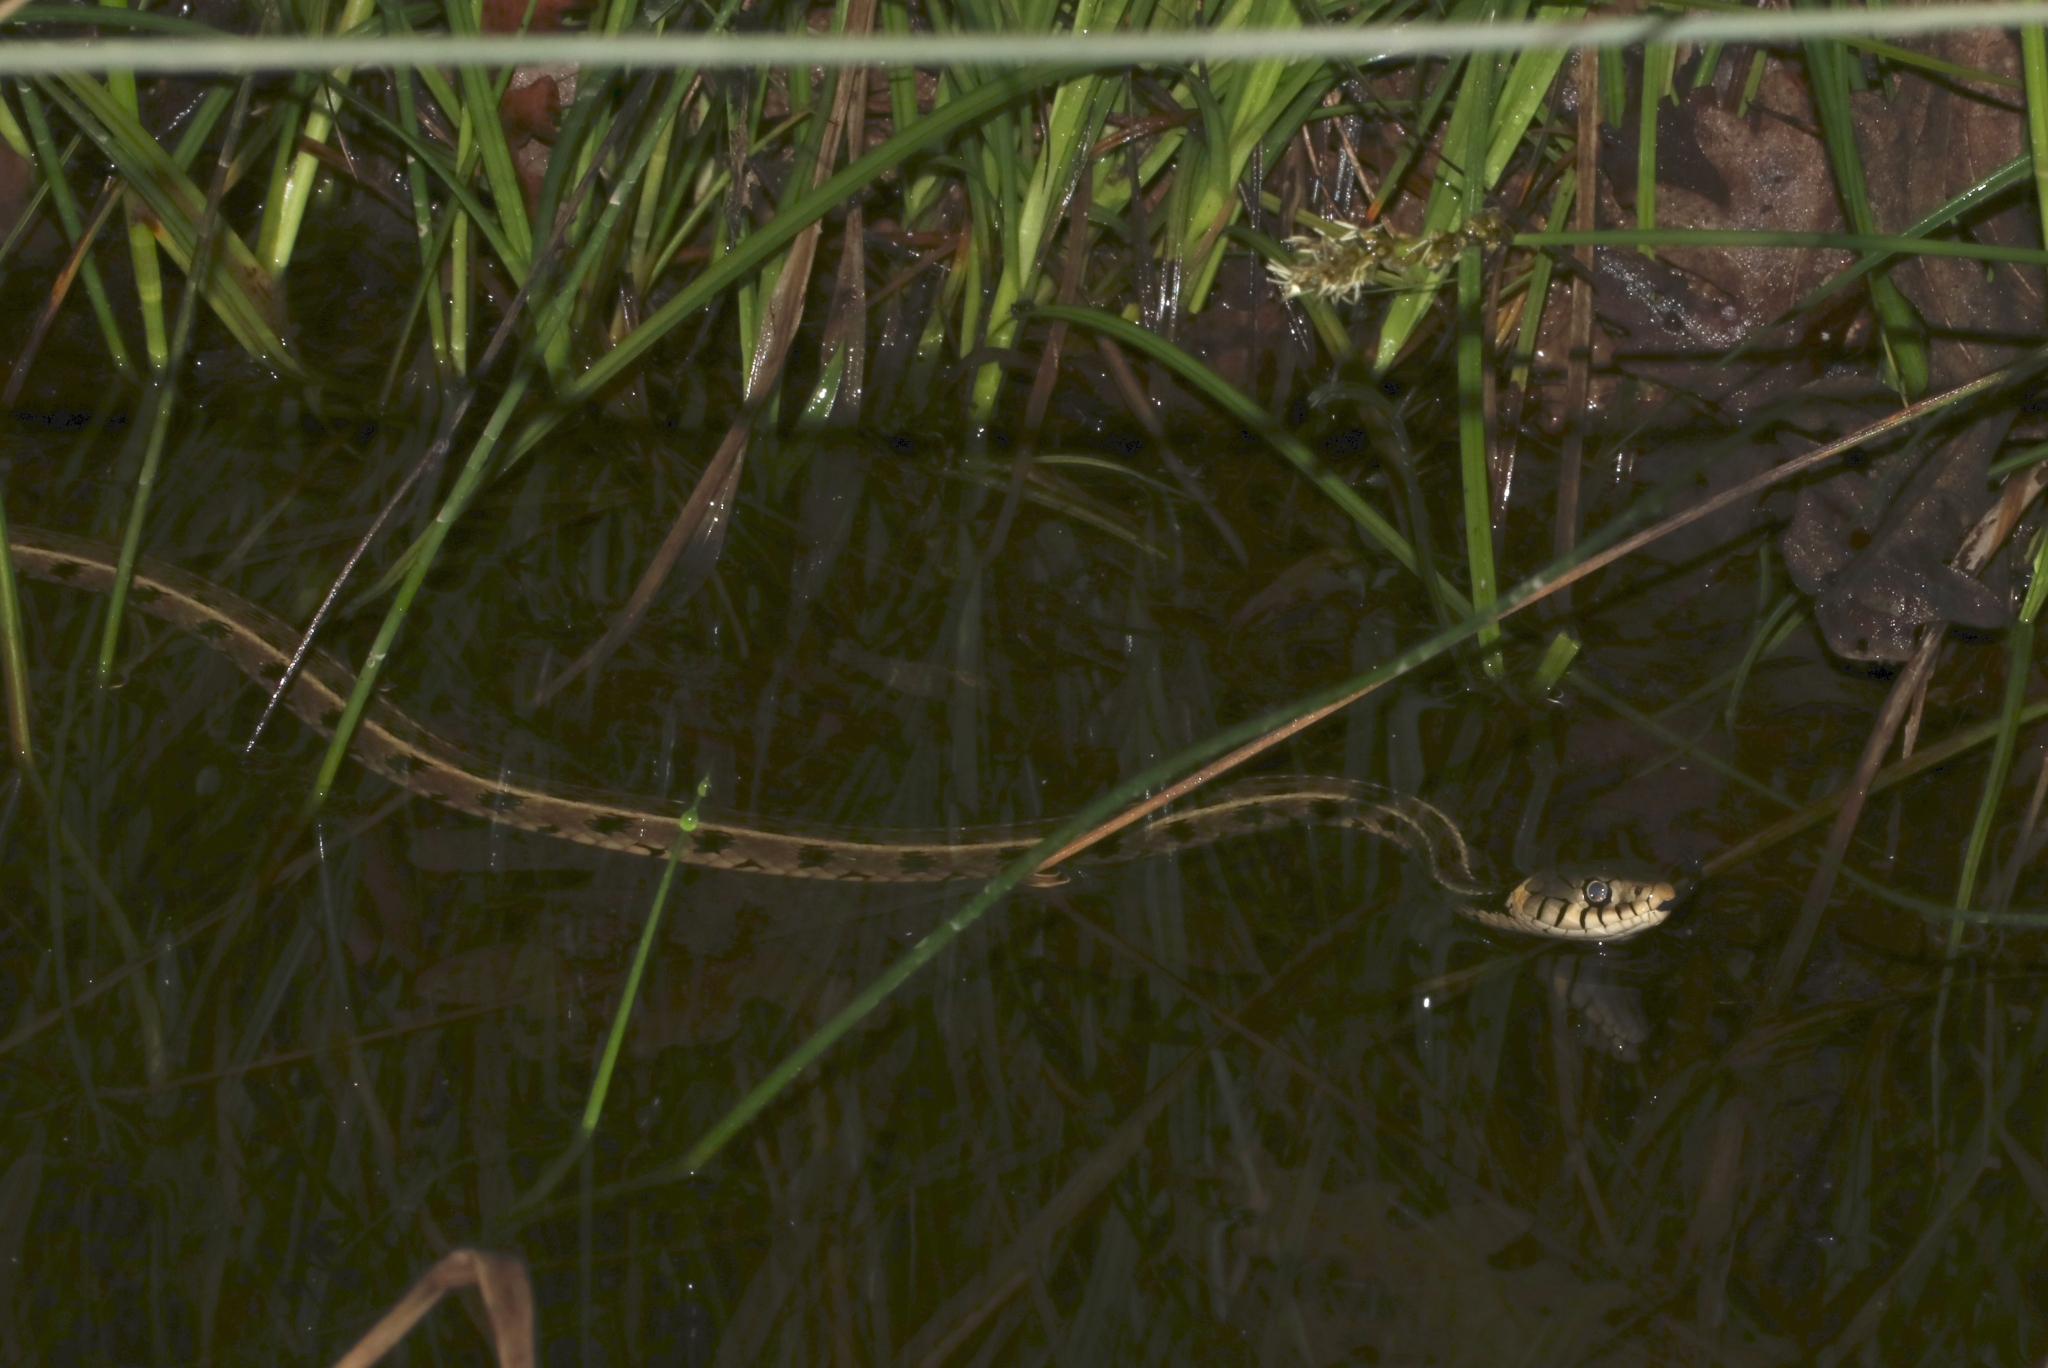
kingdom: Animalia
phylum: Chordata
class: Squamata
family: Colubridae
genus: Natrix
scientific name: Natrix natrix
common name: Grass snake
